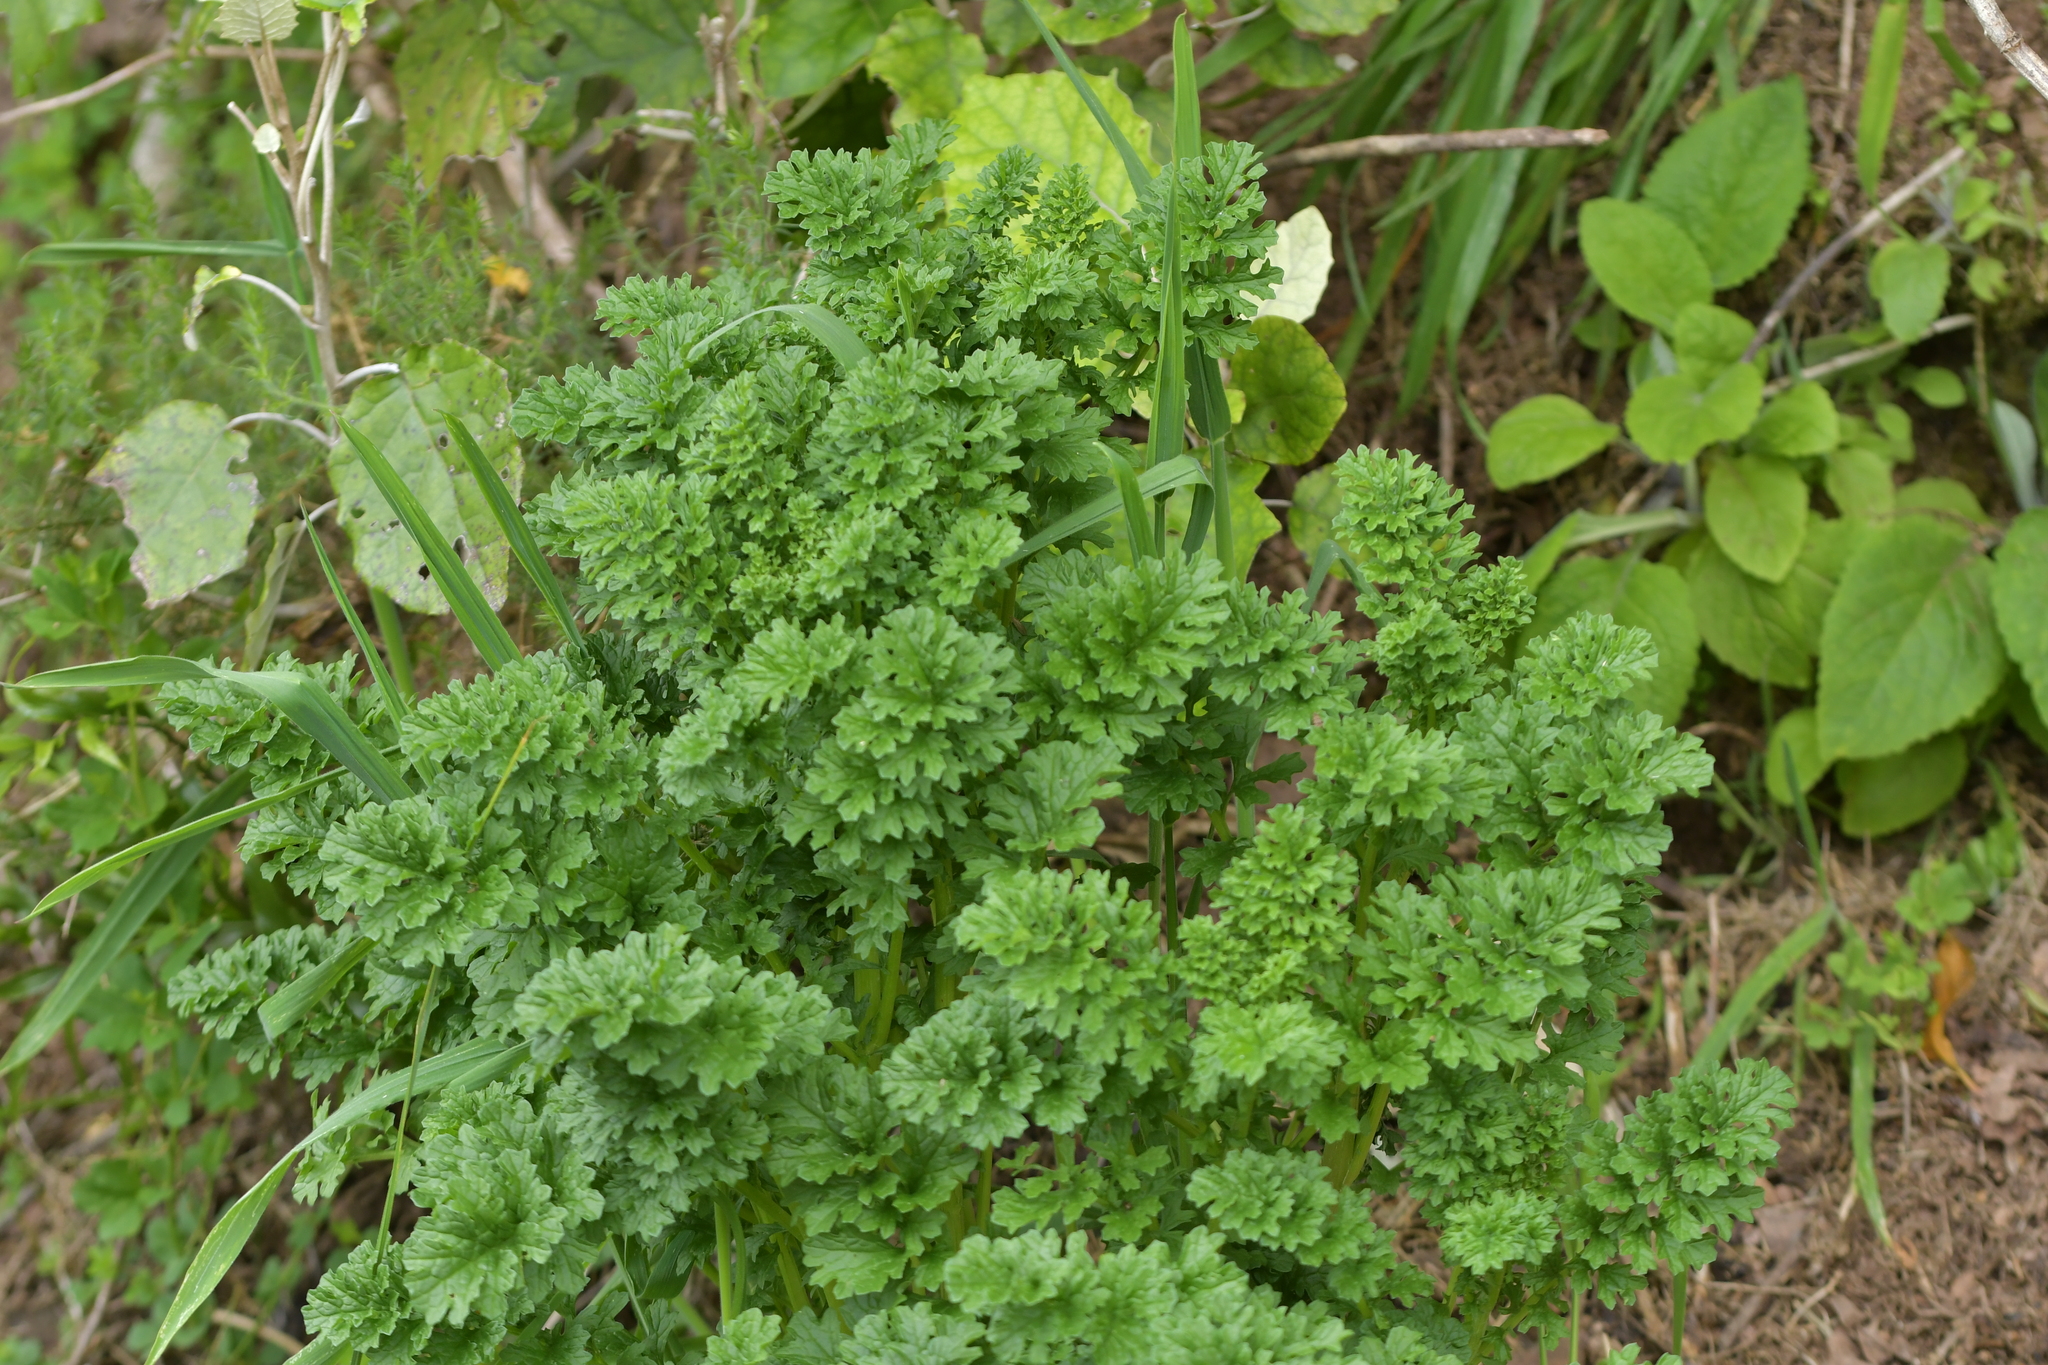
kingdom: Plantae
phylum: Tracheophyta
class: Magnoliopsida
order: Asterales
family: Asteraceae
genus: Jacobaea
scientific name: Jacobaea vulgaris
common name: Stinking willie
